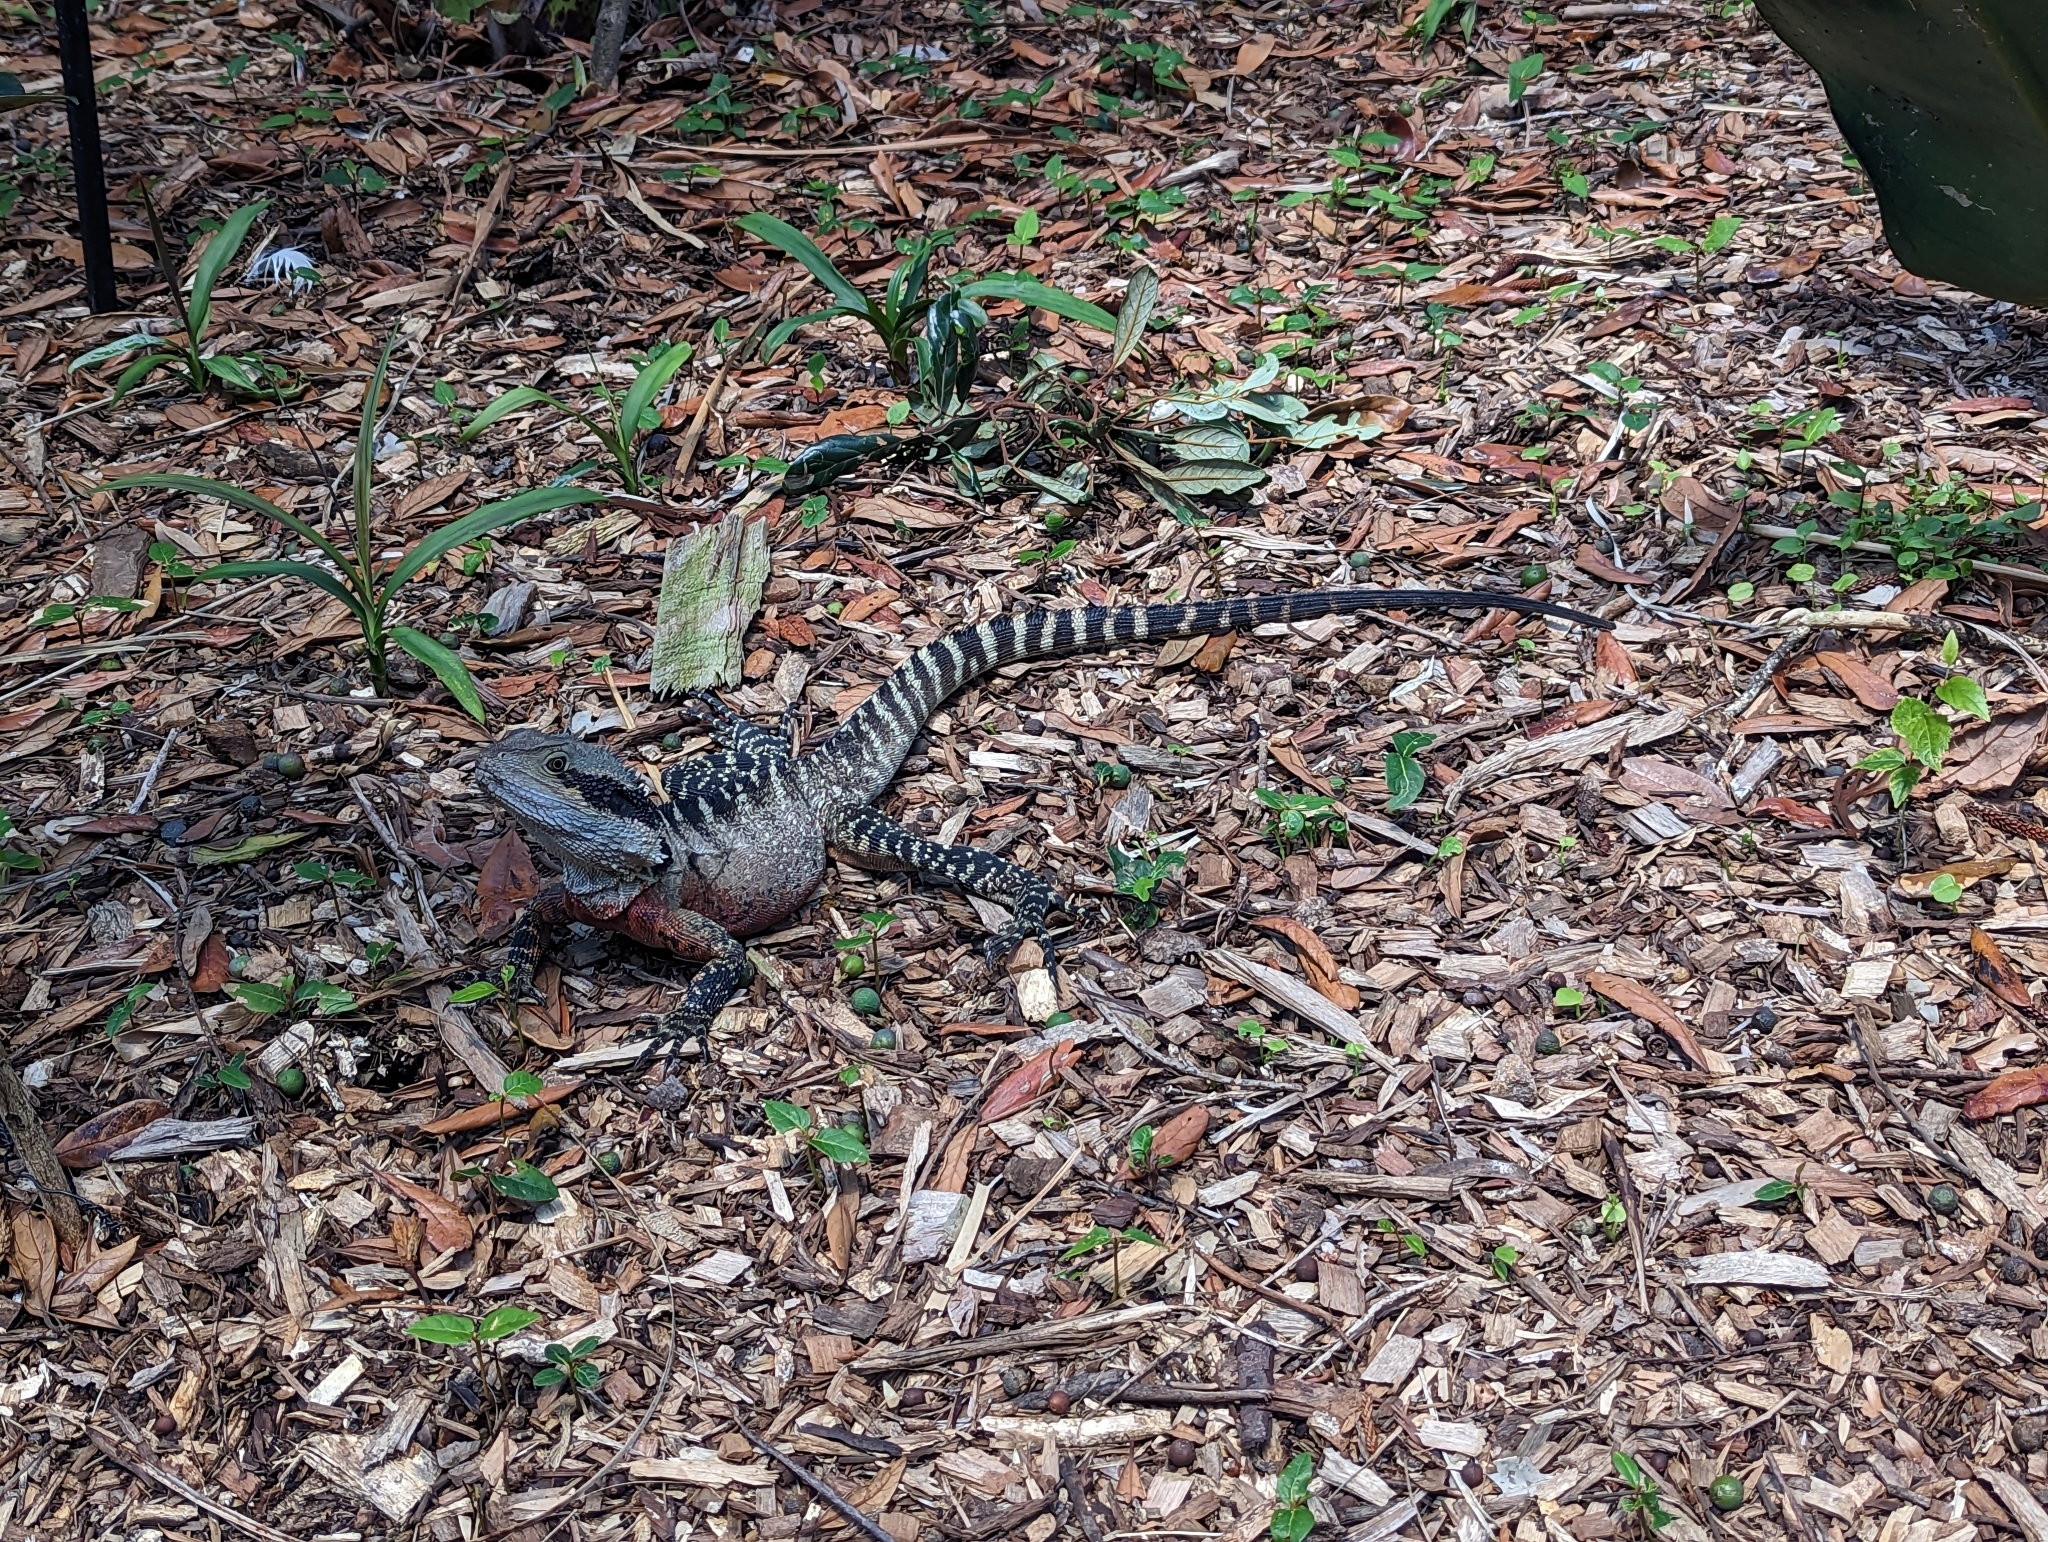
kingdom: Animalia
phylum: Chordata
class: Squamata
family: Agamidae
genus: Intellagama
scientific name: Intellagama lesueurii
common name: Eastern water dragon
